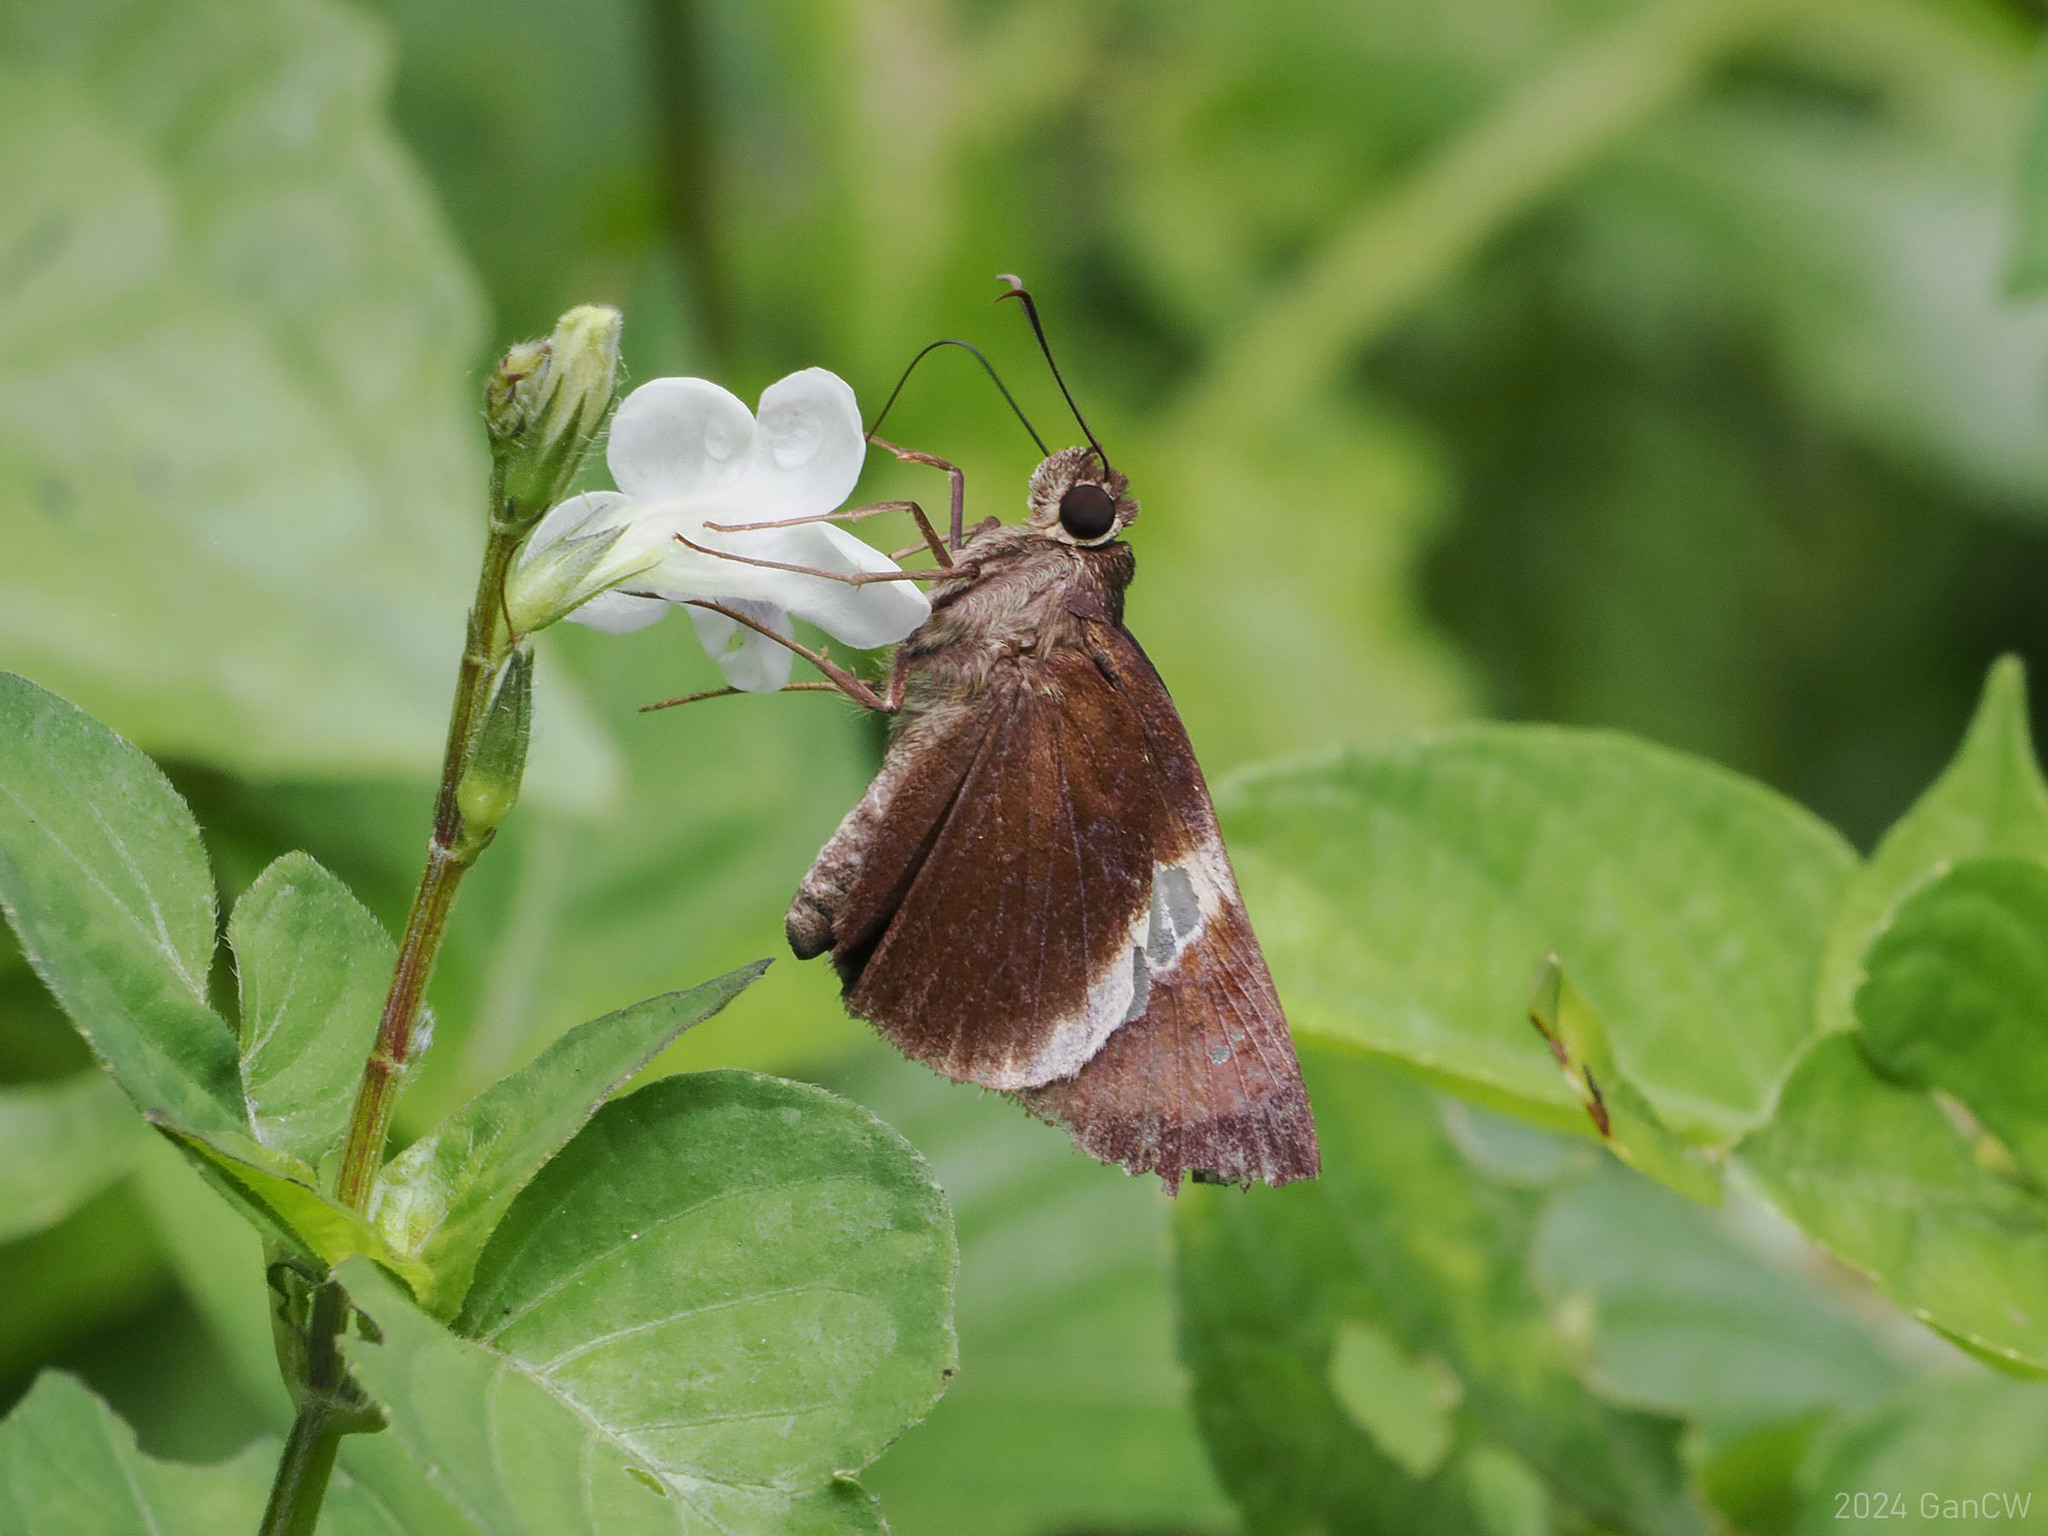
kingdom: Animalia
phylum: Arthropoda
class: Insecta
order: Lepidoptera
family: Hesperiidae
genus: Lotongus
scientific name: Lotongus calathus
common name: White-tipped palmer
